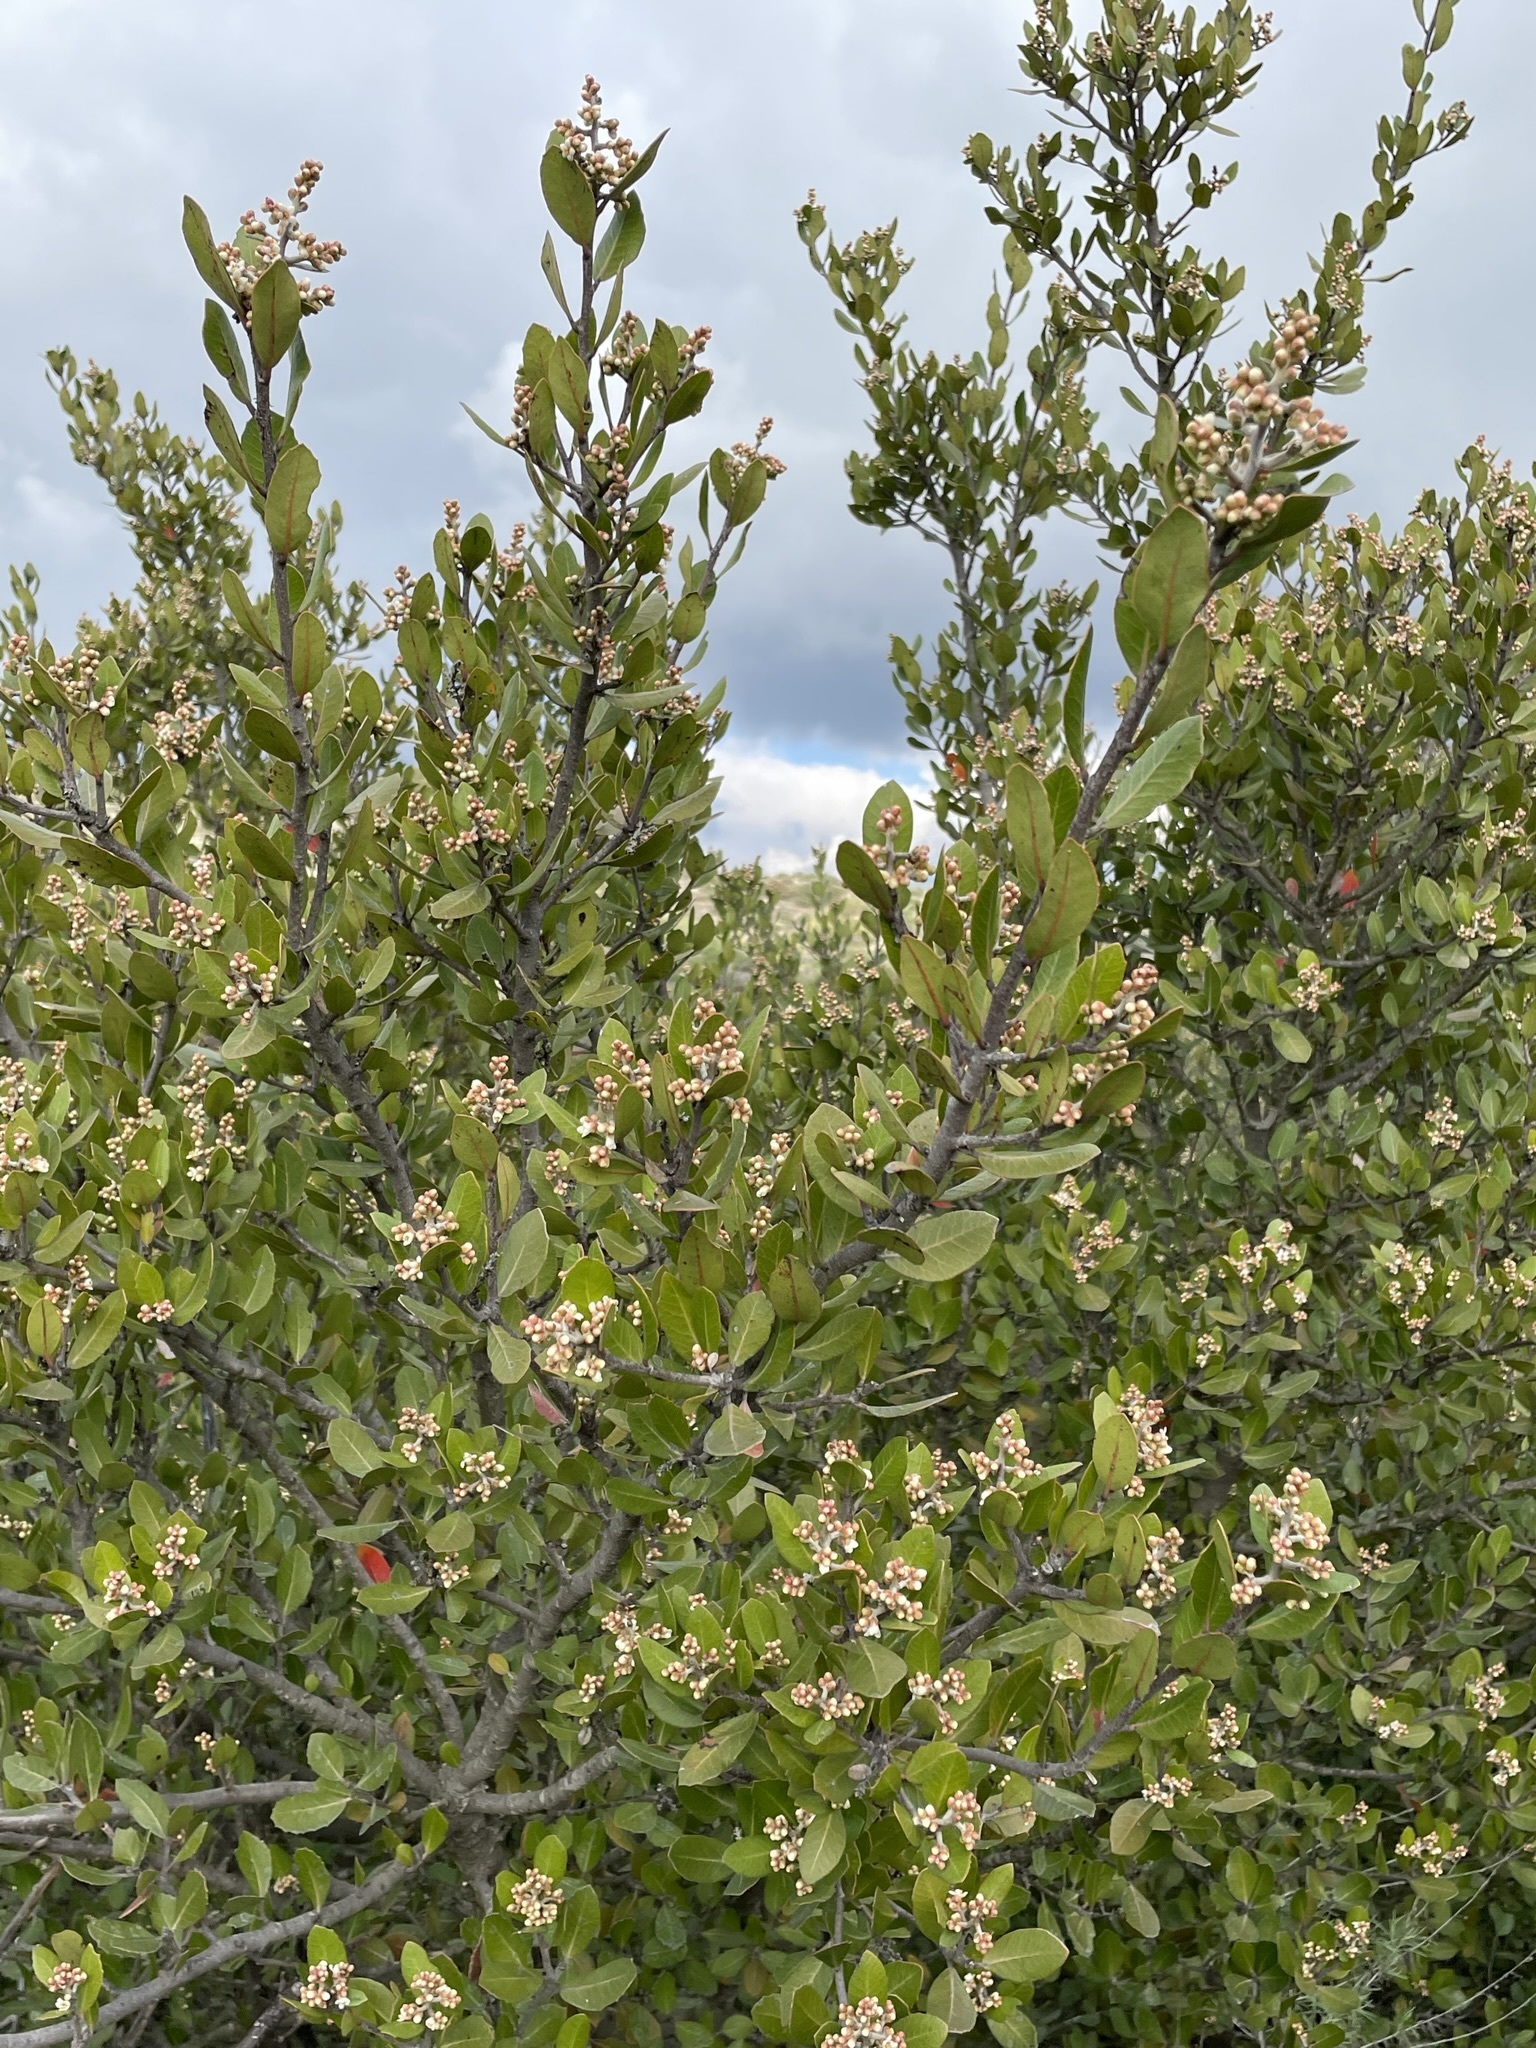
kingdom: Plantae
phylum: Tracheophyta
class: Magnoliopsida
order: Sapindales
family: Anacardiaceae
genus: Rhus
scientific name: Rhus integrifolia
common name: Lemonade sumac
